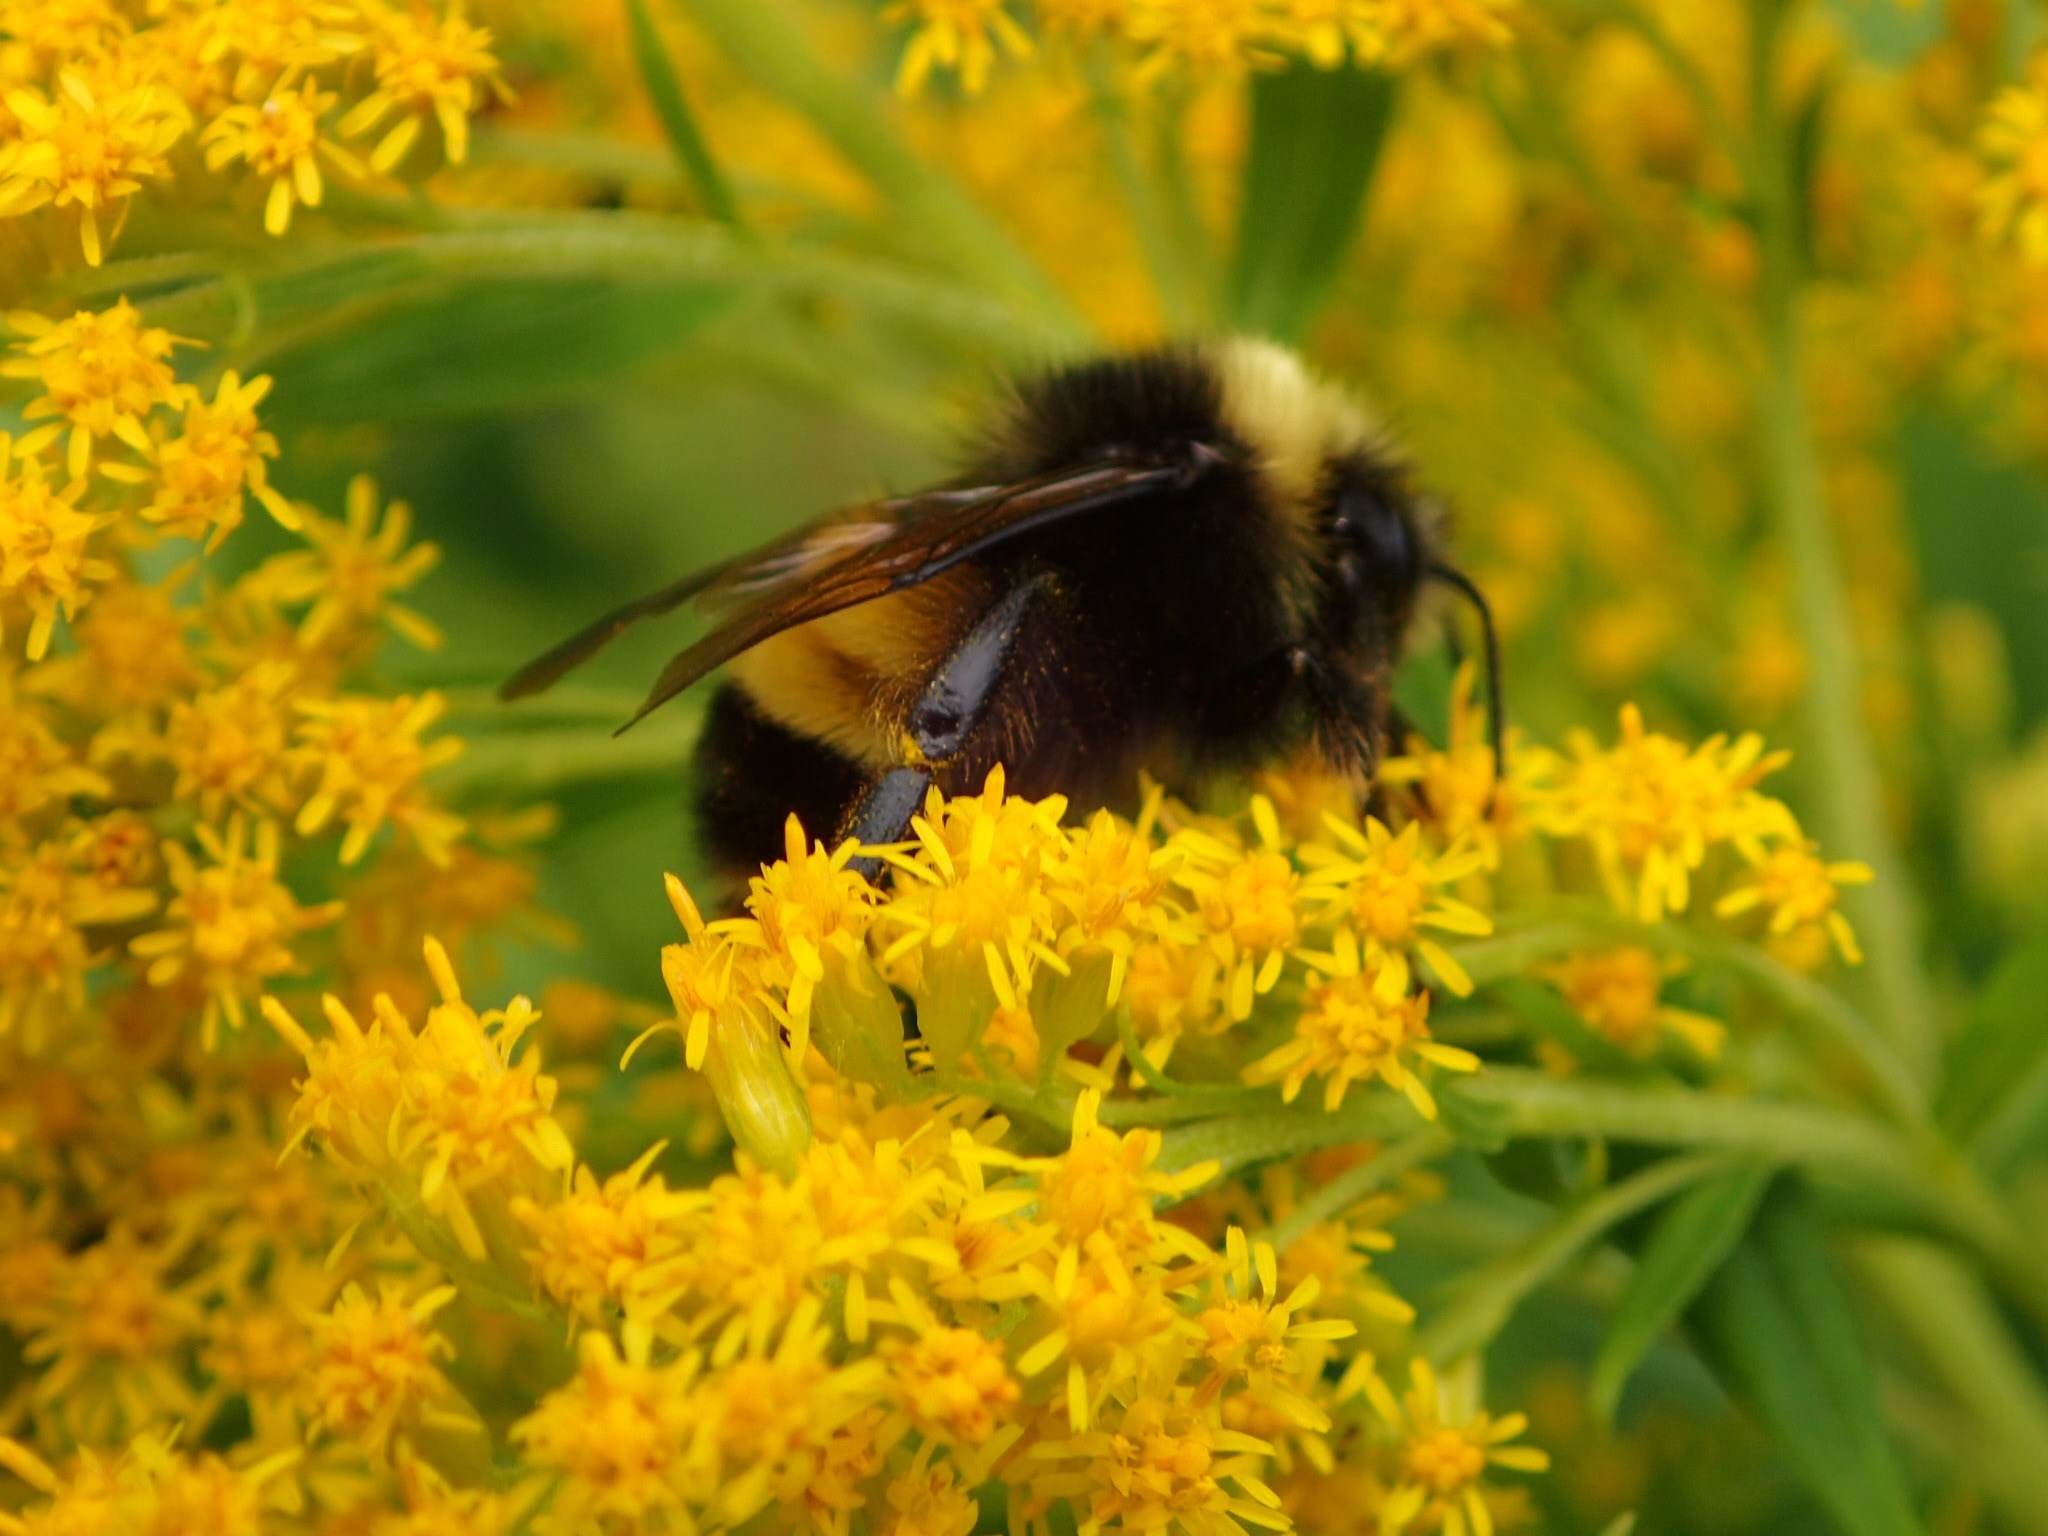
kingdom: Animalia
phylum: Arthropoda
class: Insecta
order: Hymenoptera
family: Apidae
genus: Bombus
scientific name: Bombus terricola
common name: Yellow-banded bumble bee
